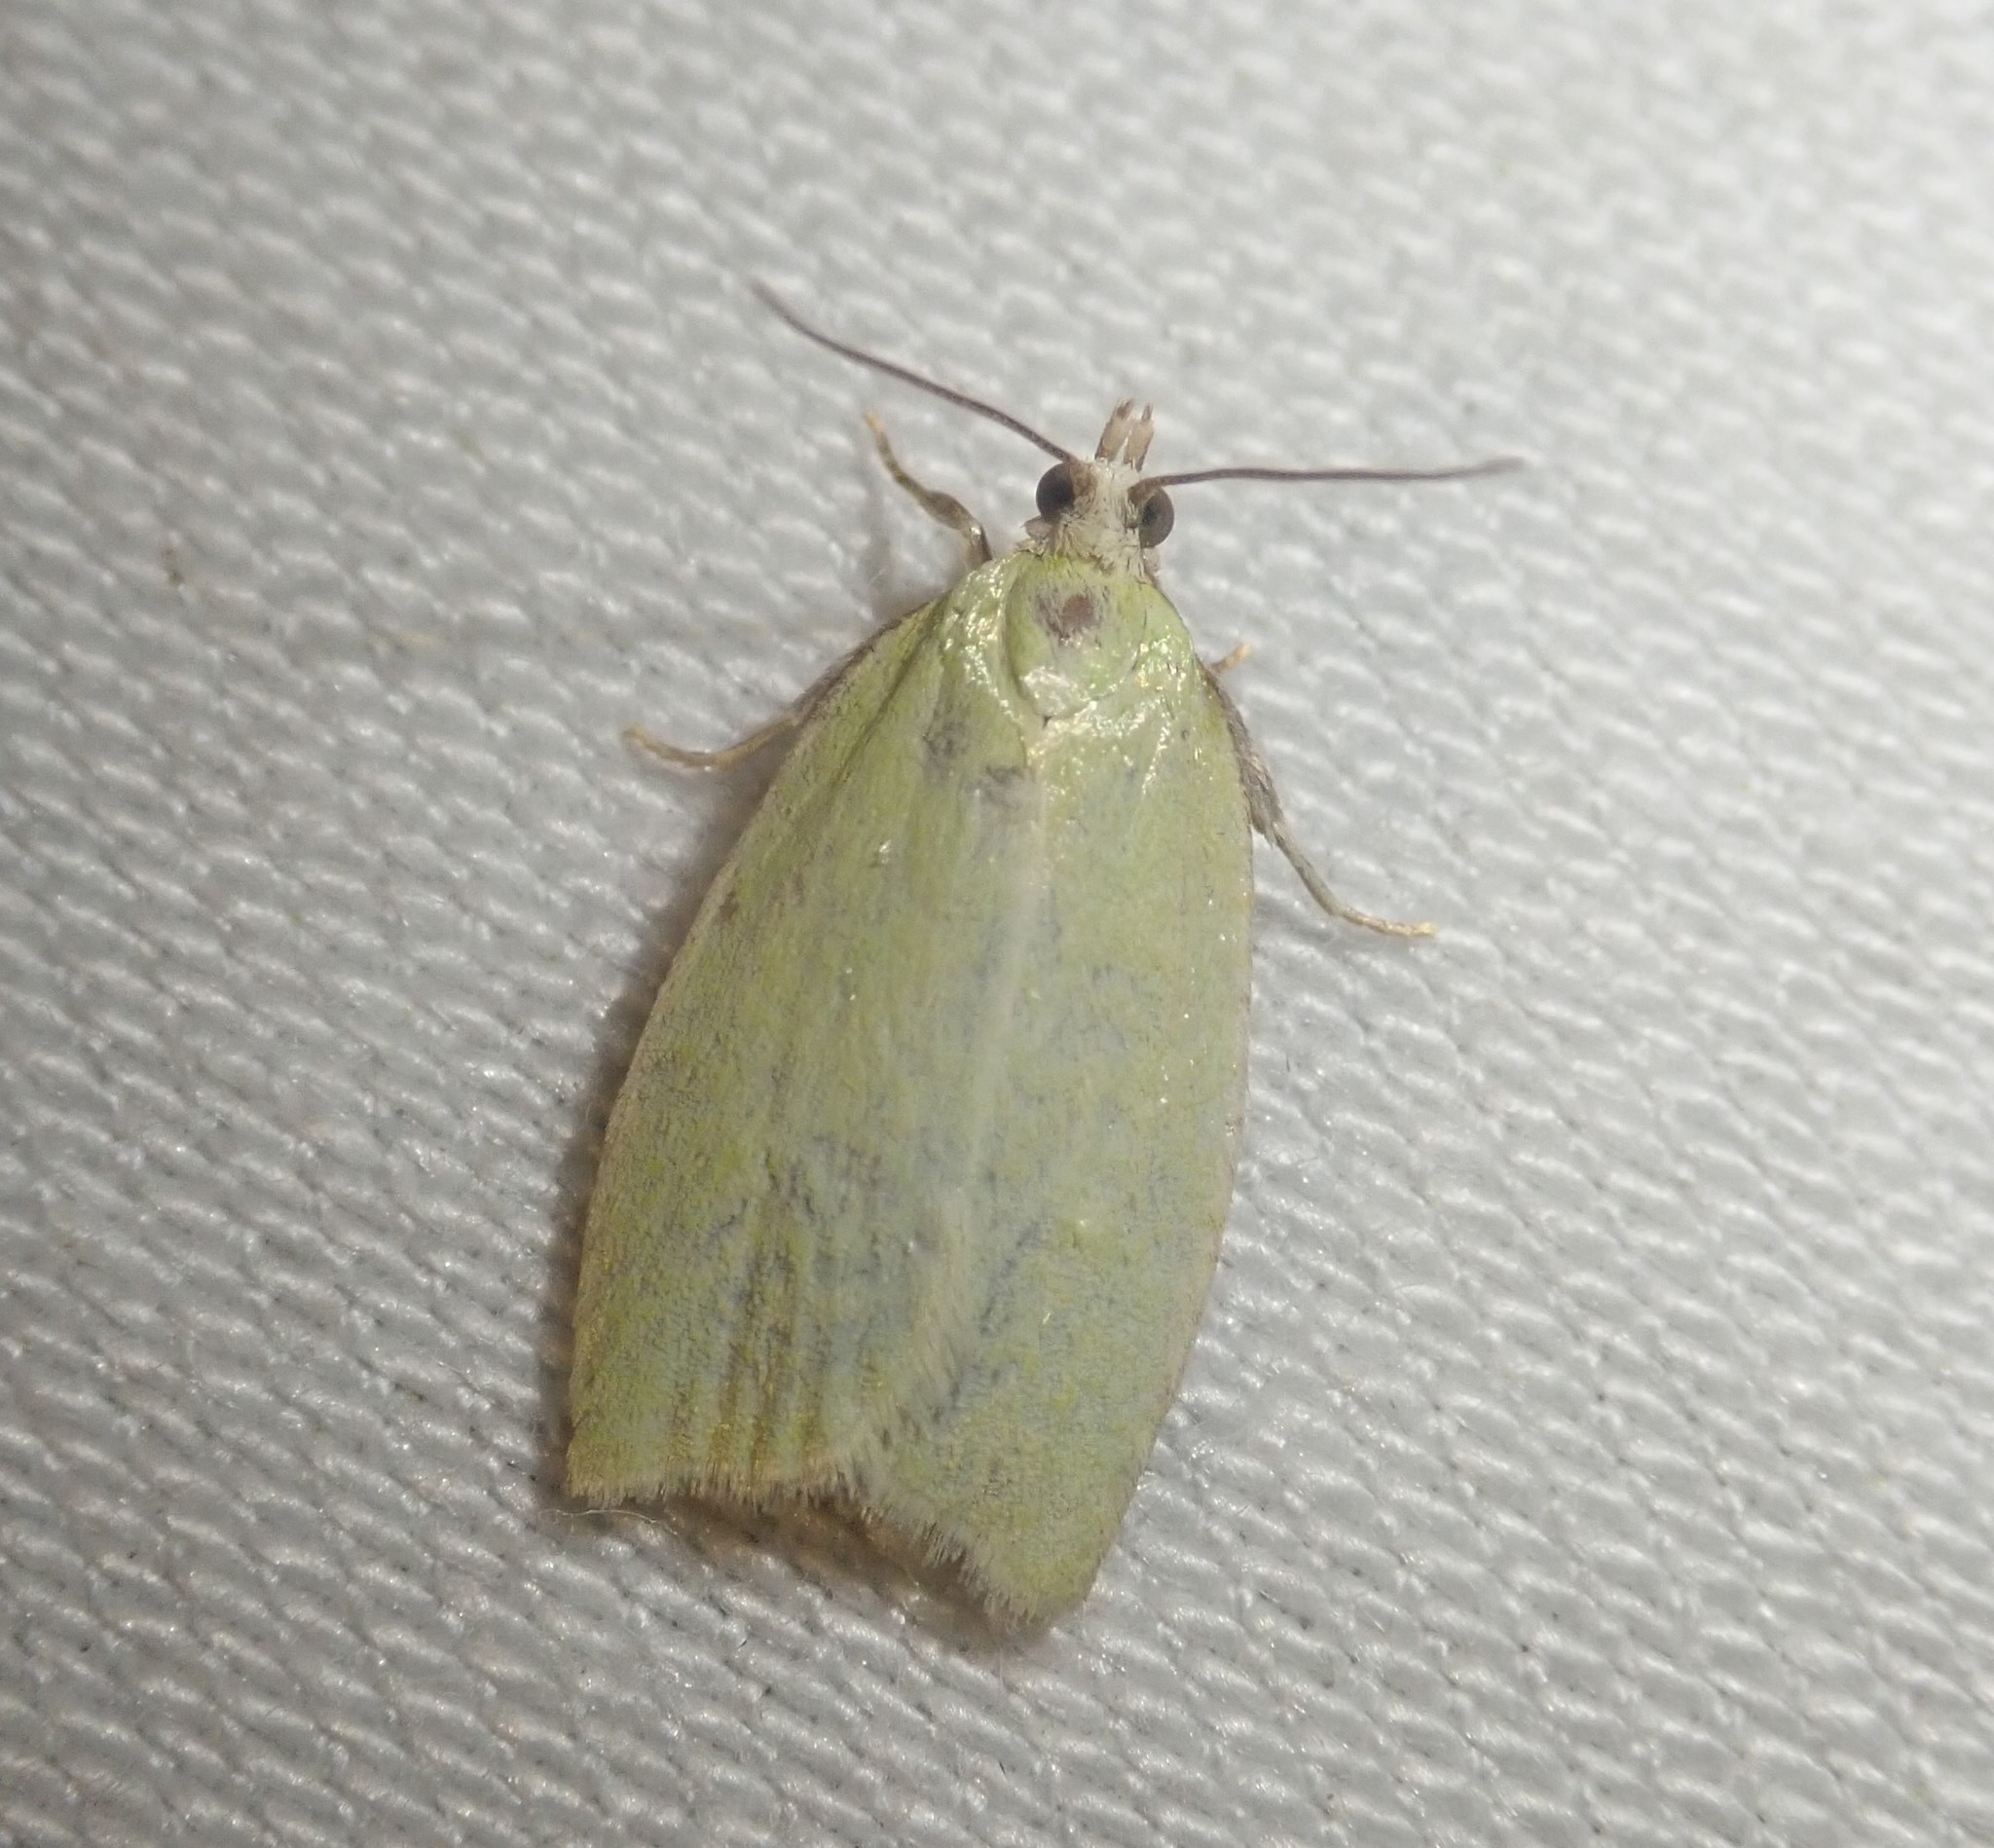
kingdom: Animalia
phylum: Arthropoda
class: Insecta
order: Lepidoptera
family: Tortricidae
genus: Tortrix
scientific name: Tortrix viridana
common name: Green oak tortrix
